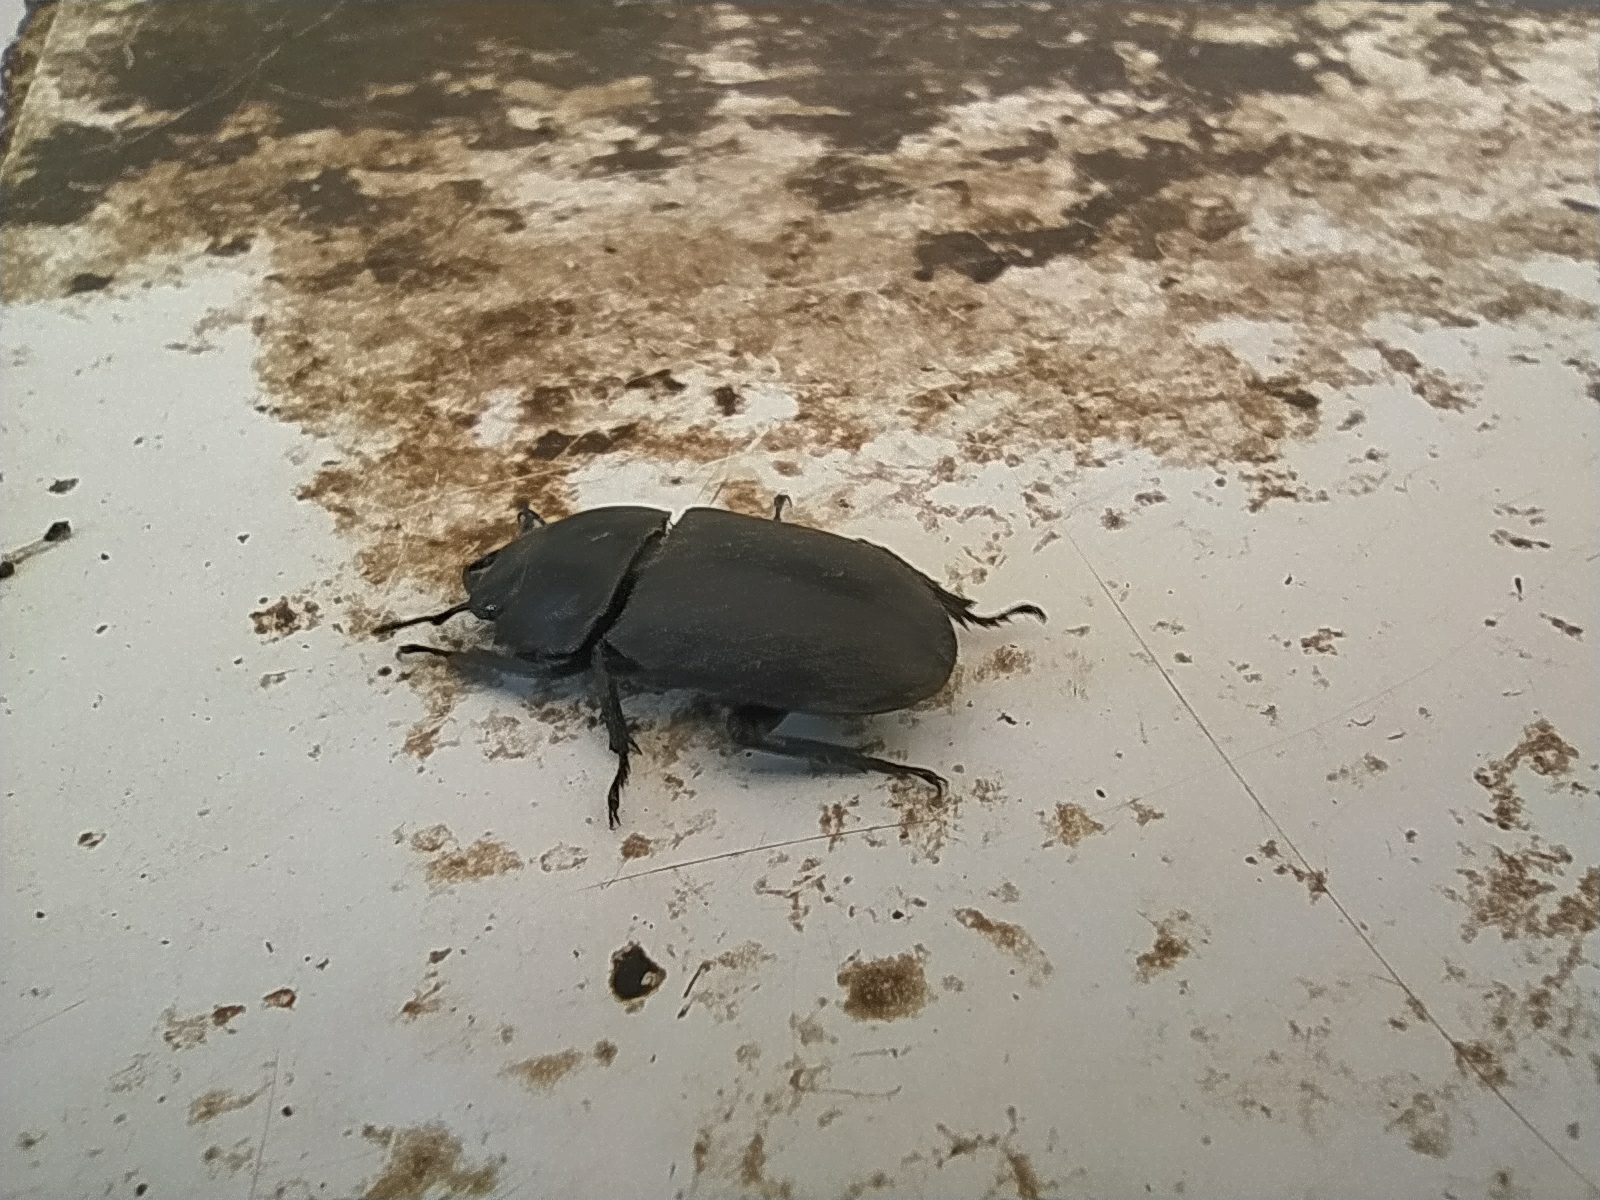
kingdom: Animalia
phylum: Arthropoda
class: Insecta
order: Coleoptera
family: Lucanidae
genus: Dorcus
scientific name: Dorcus parallelipipedus
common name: Lesser stag beetle
